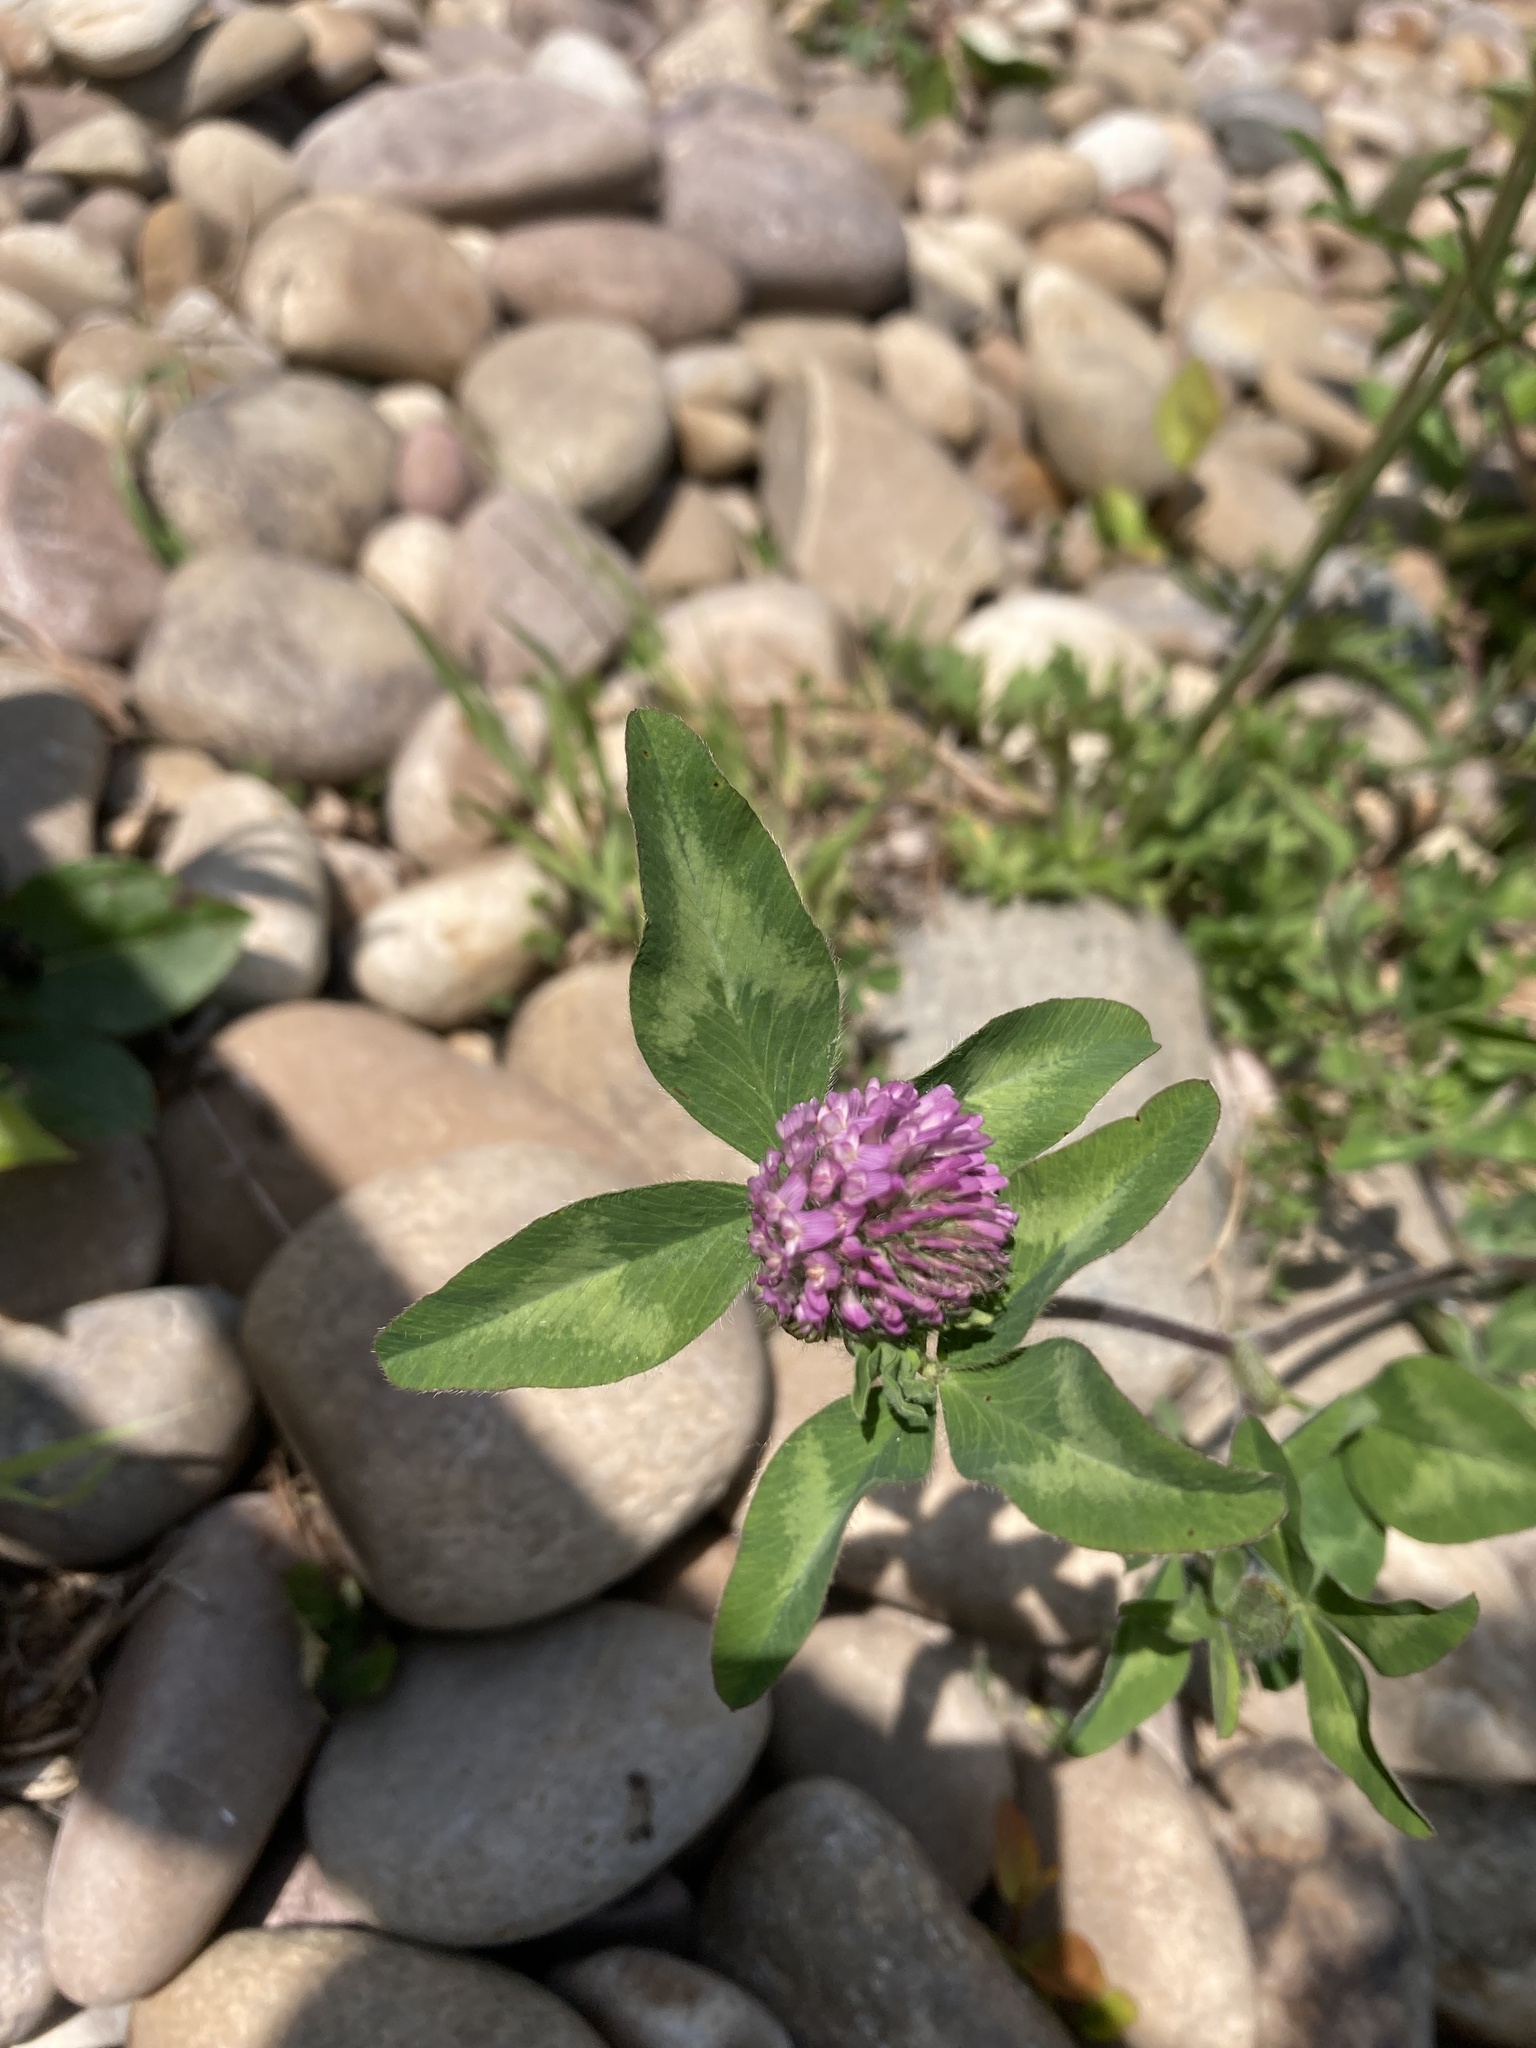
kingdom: Plantae
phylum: Tracheophyta
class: Magnoliopsida
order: Fabales
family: Fabaceae
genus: Trifolium
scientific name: Trifolium pratense
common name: Red clover
